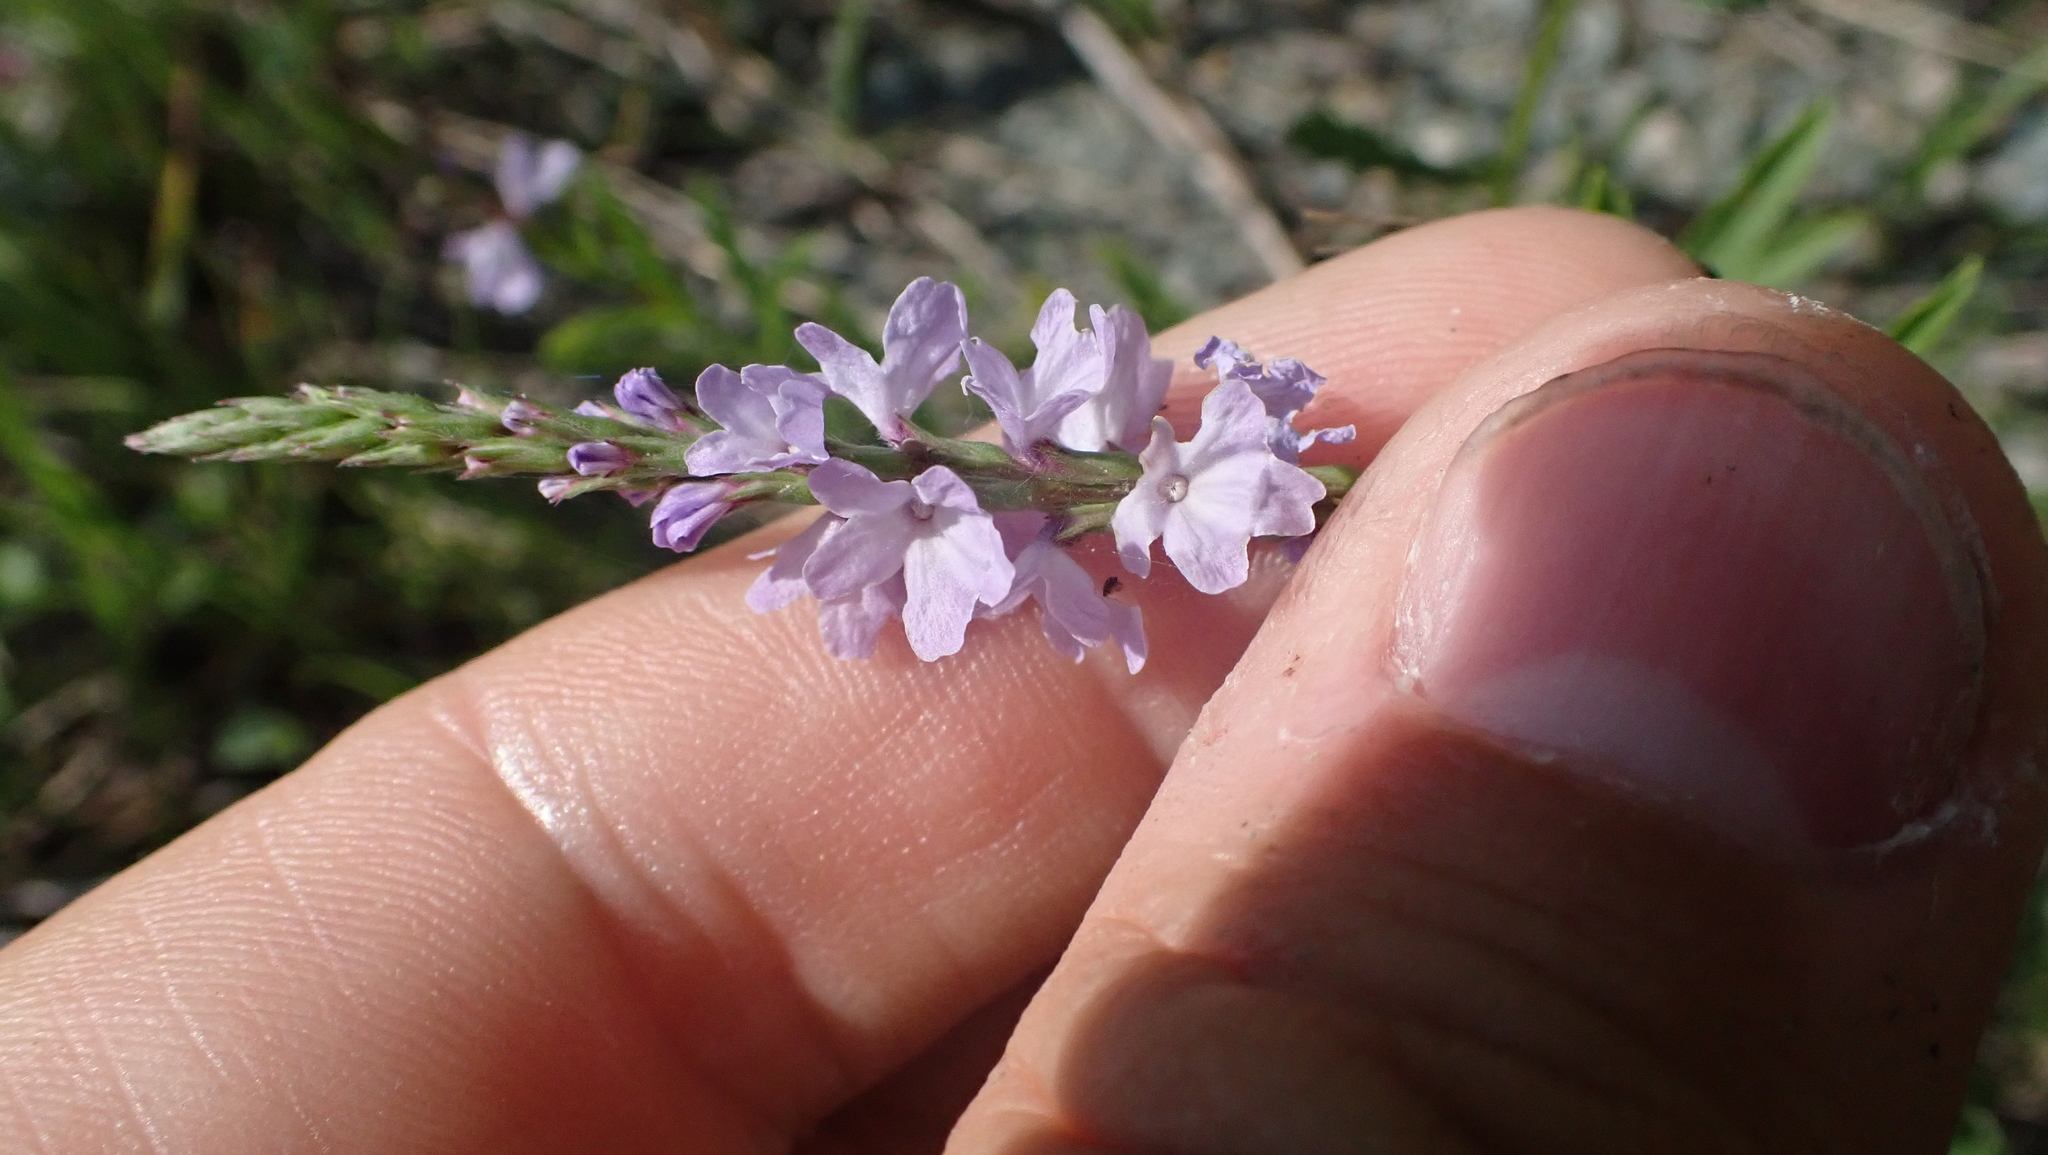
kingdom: Plantae
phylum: Tracheophyta
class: Magnoliopsida
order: Lamiales
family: Verbenaceae
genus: Verbena
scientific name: Verbena simplex
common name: Narrow-leaf vervain
